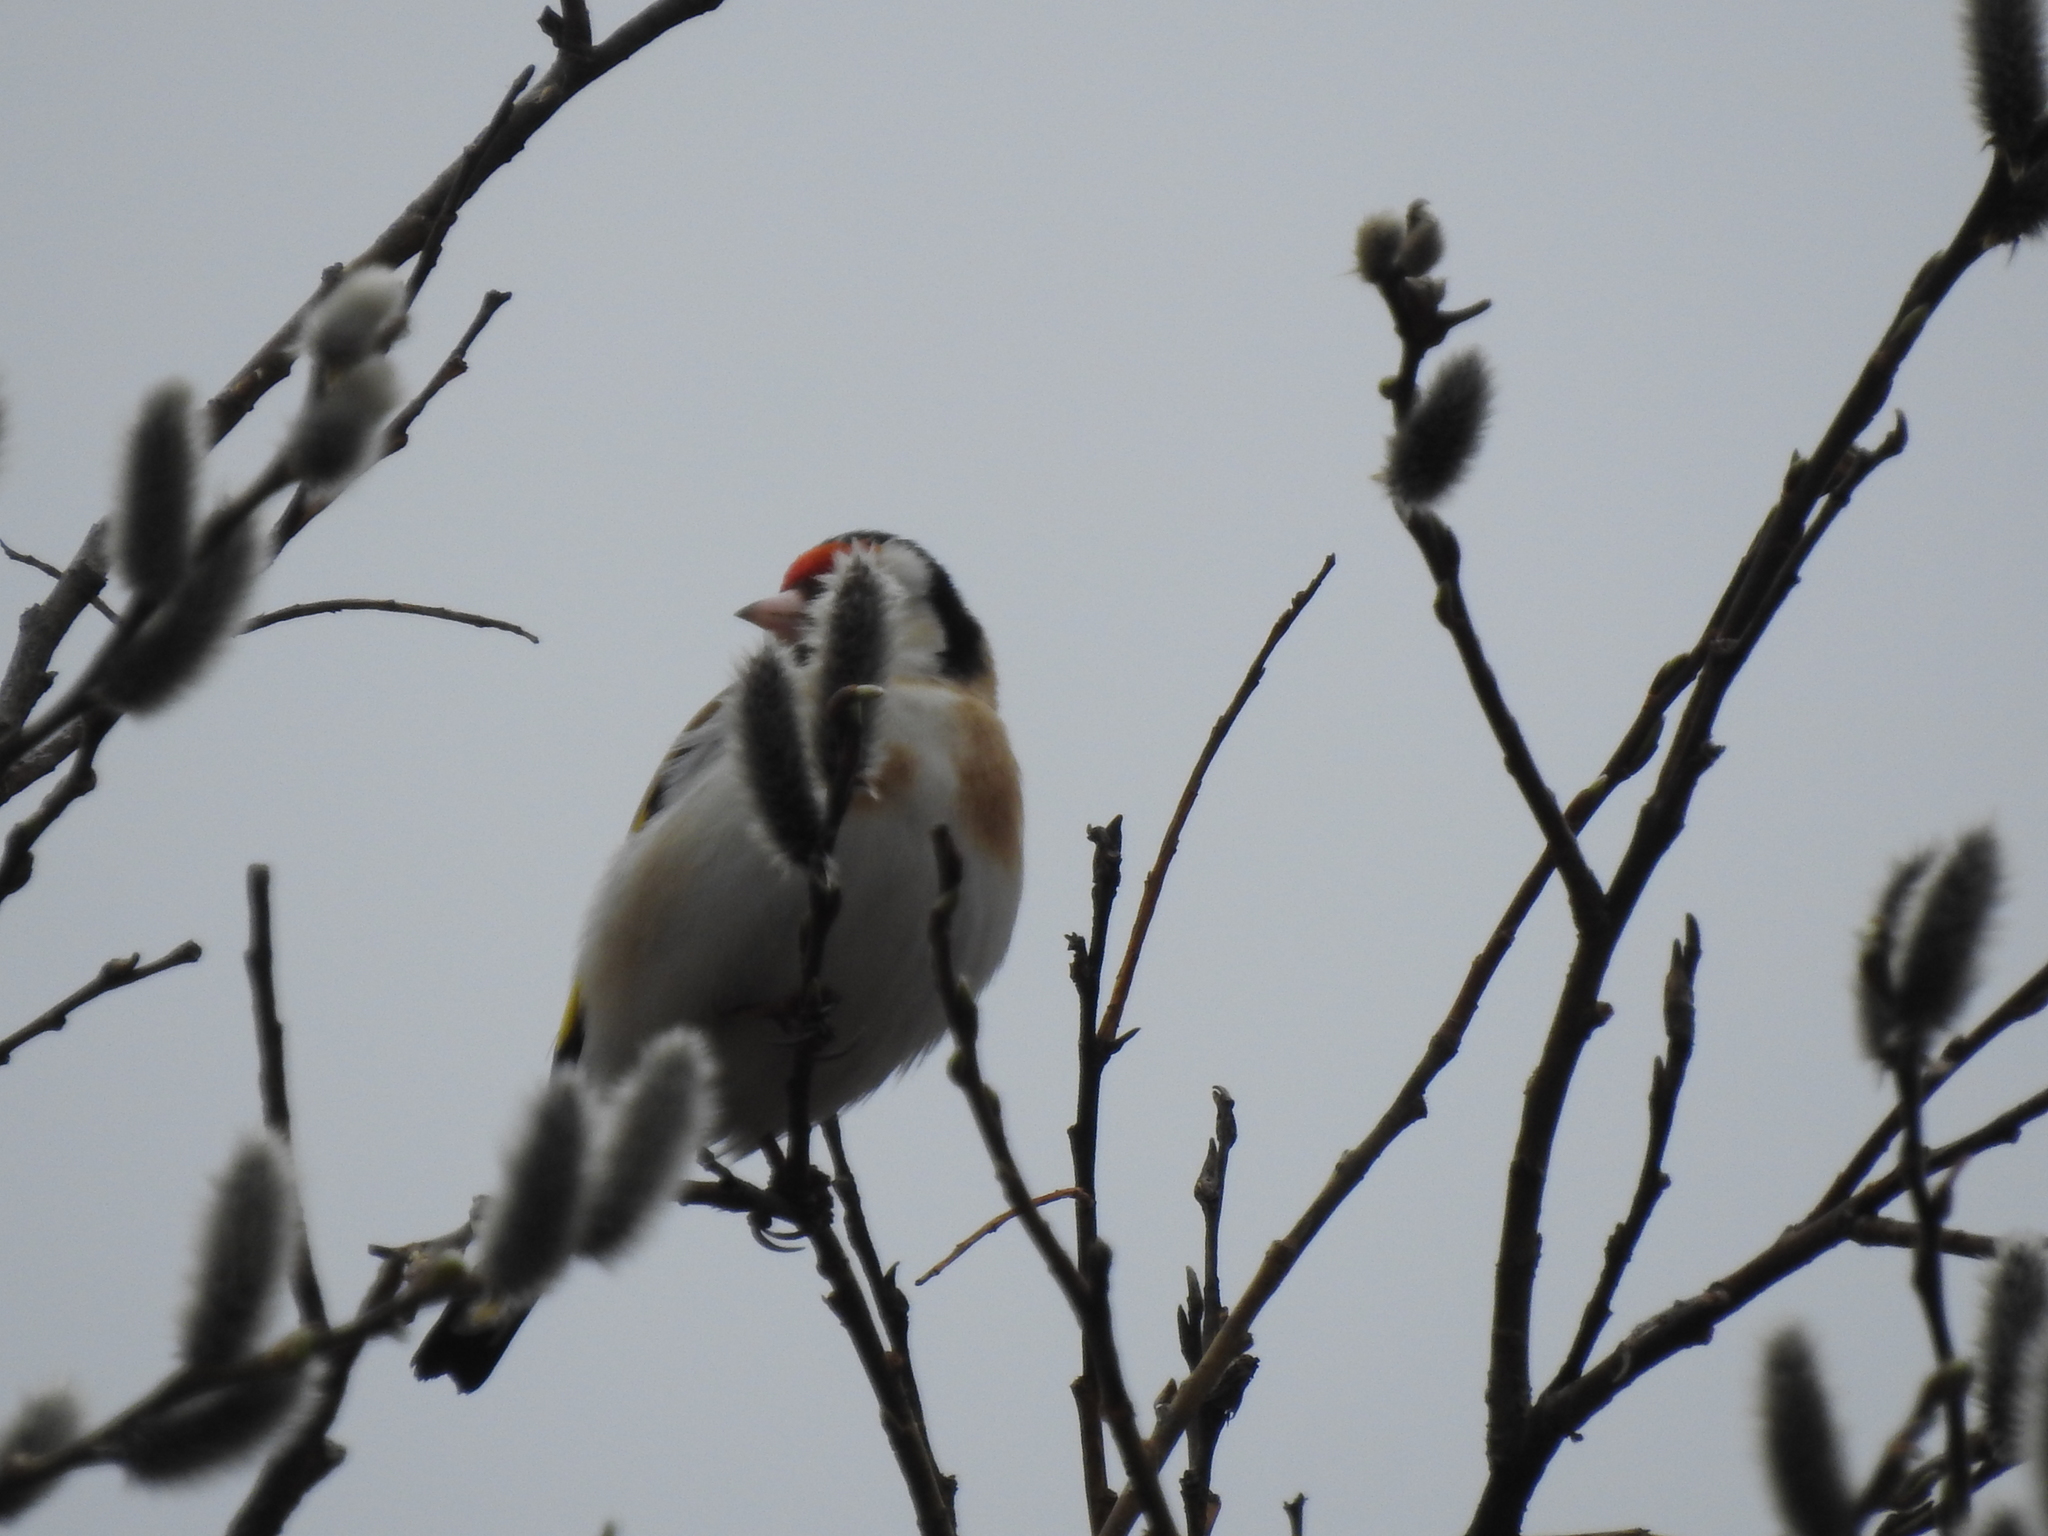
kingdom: Animalia
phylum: Chordata
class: Aves
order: Passeriformes
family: Fringillidae
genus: Carduelis
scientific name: Carduelis carduelis
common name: European goldfinch
